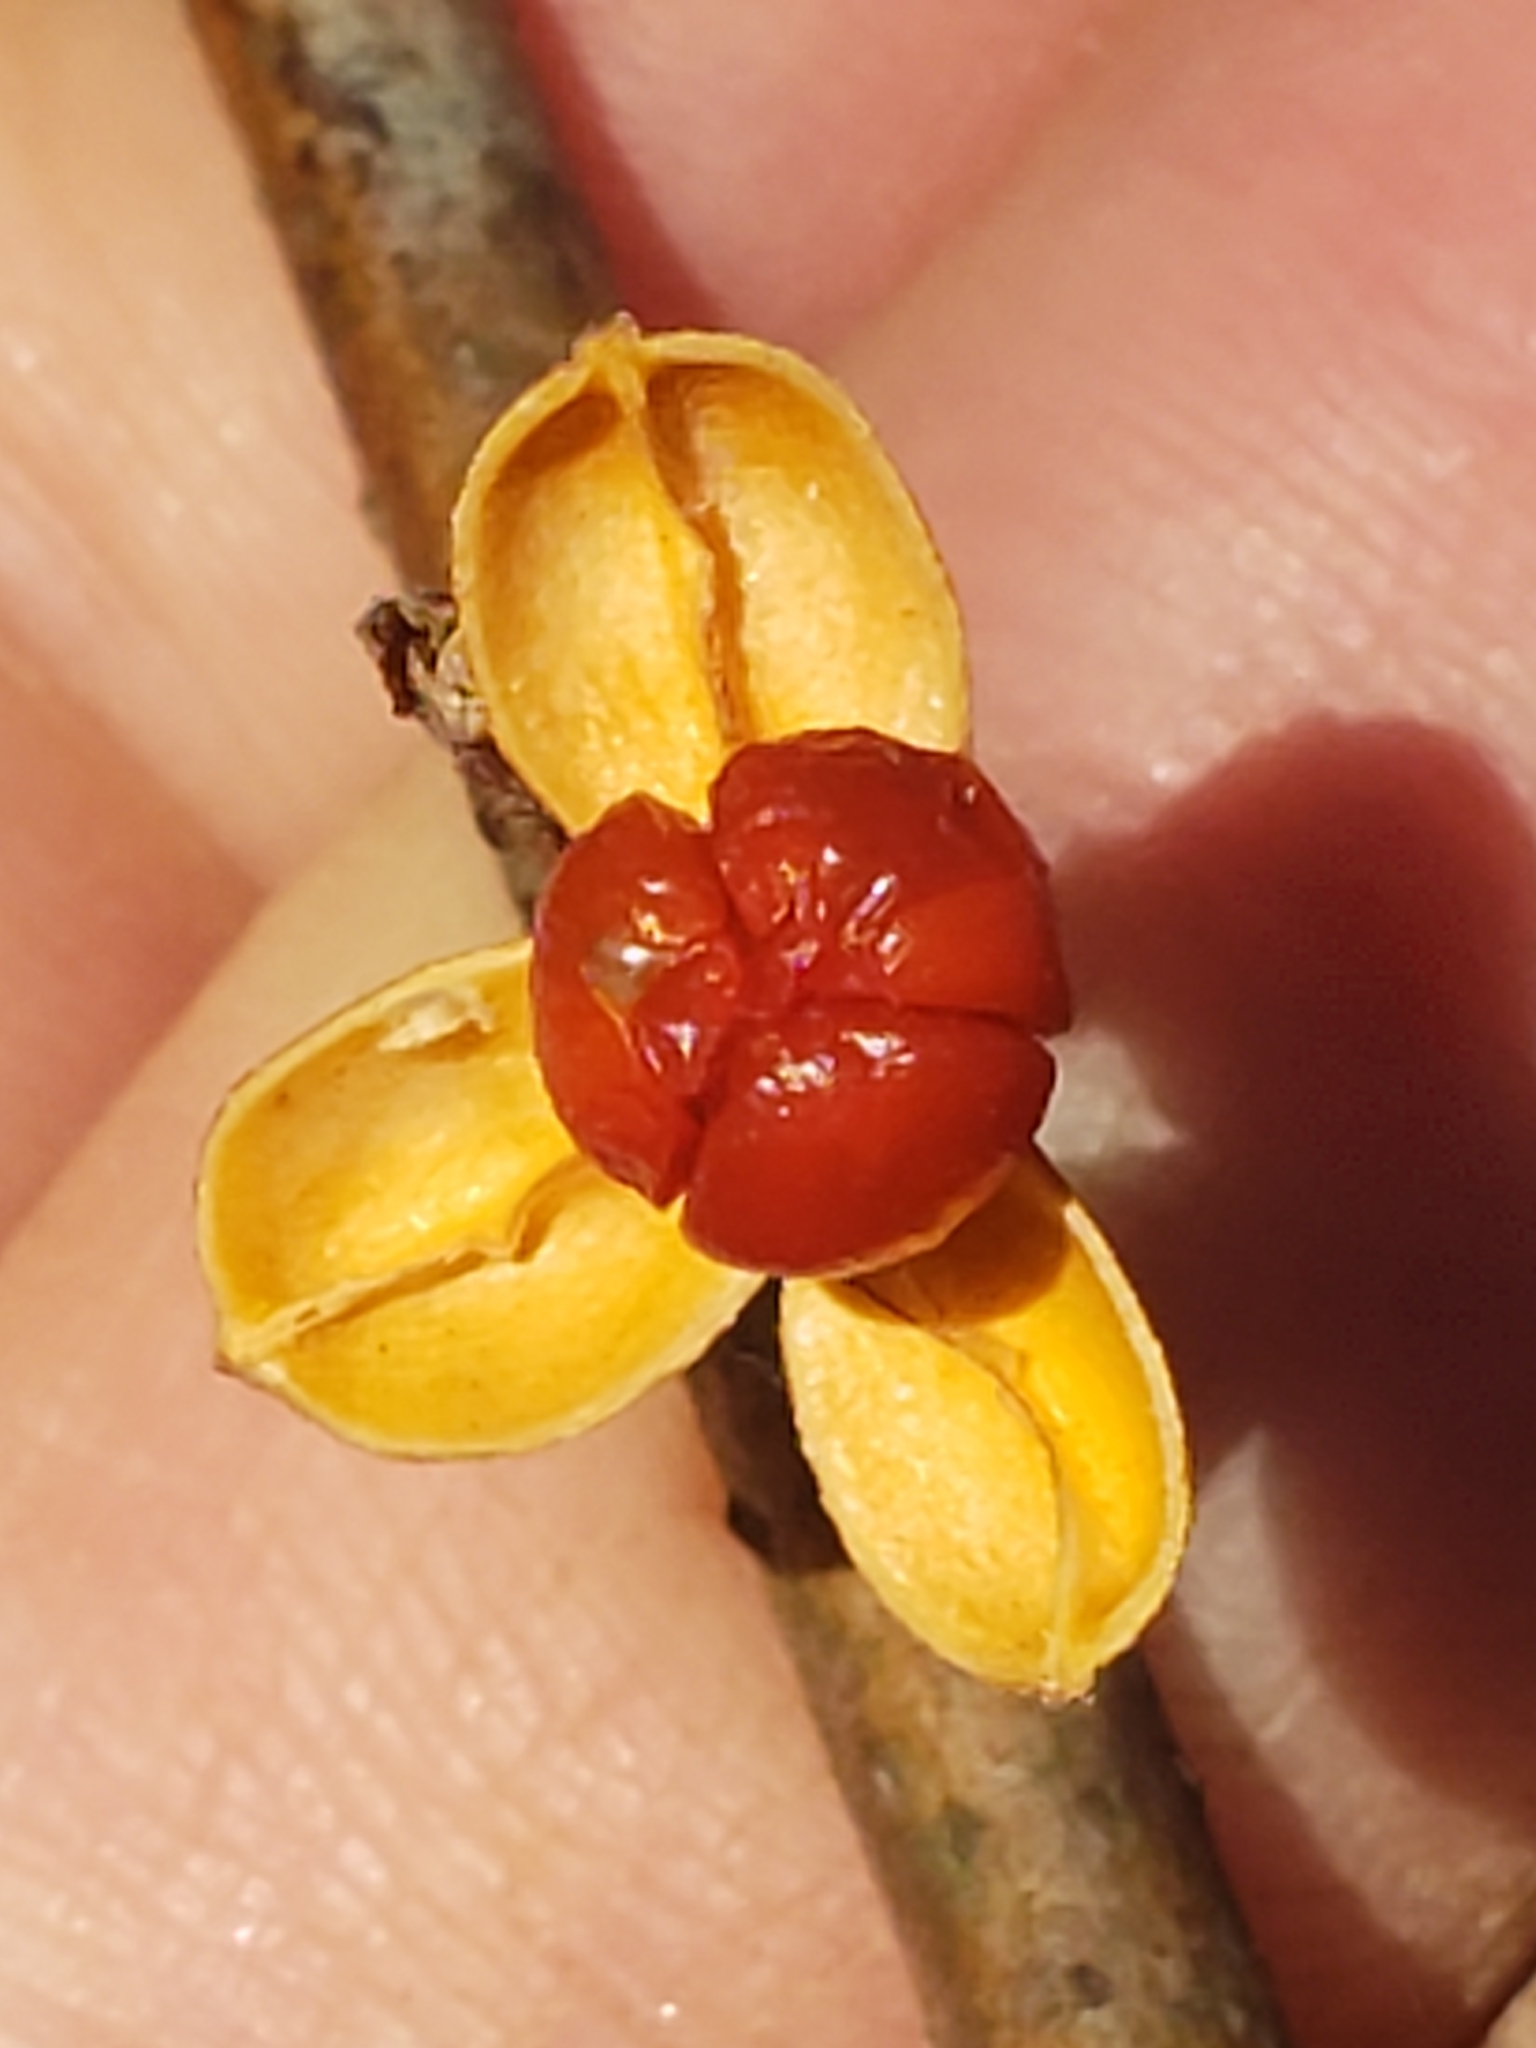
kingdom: Plantae
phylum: Tracheophyta
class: Magnoliopsida
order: Celastrales
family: Celastraceae
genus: Celastrus
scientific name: Celastrus orbiculatus
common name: Oriental bittersweet
